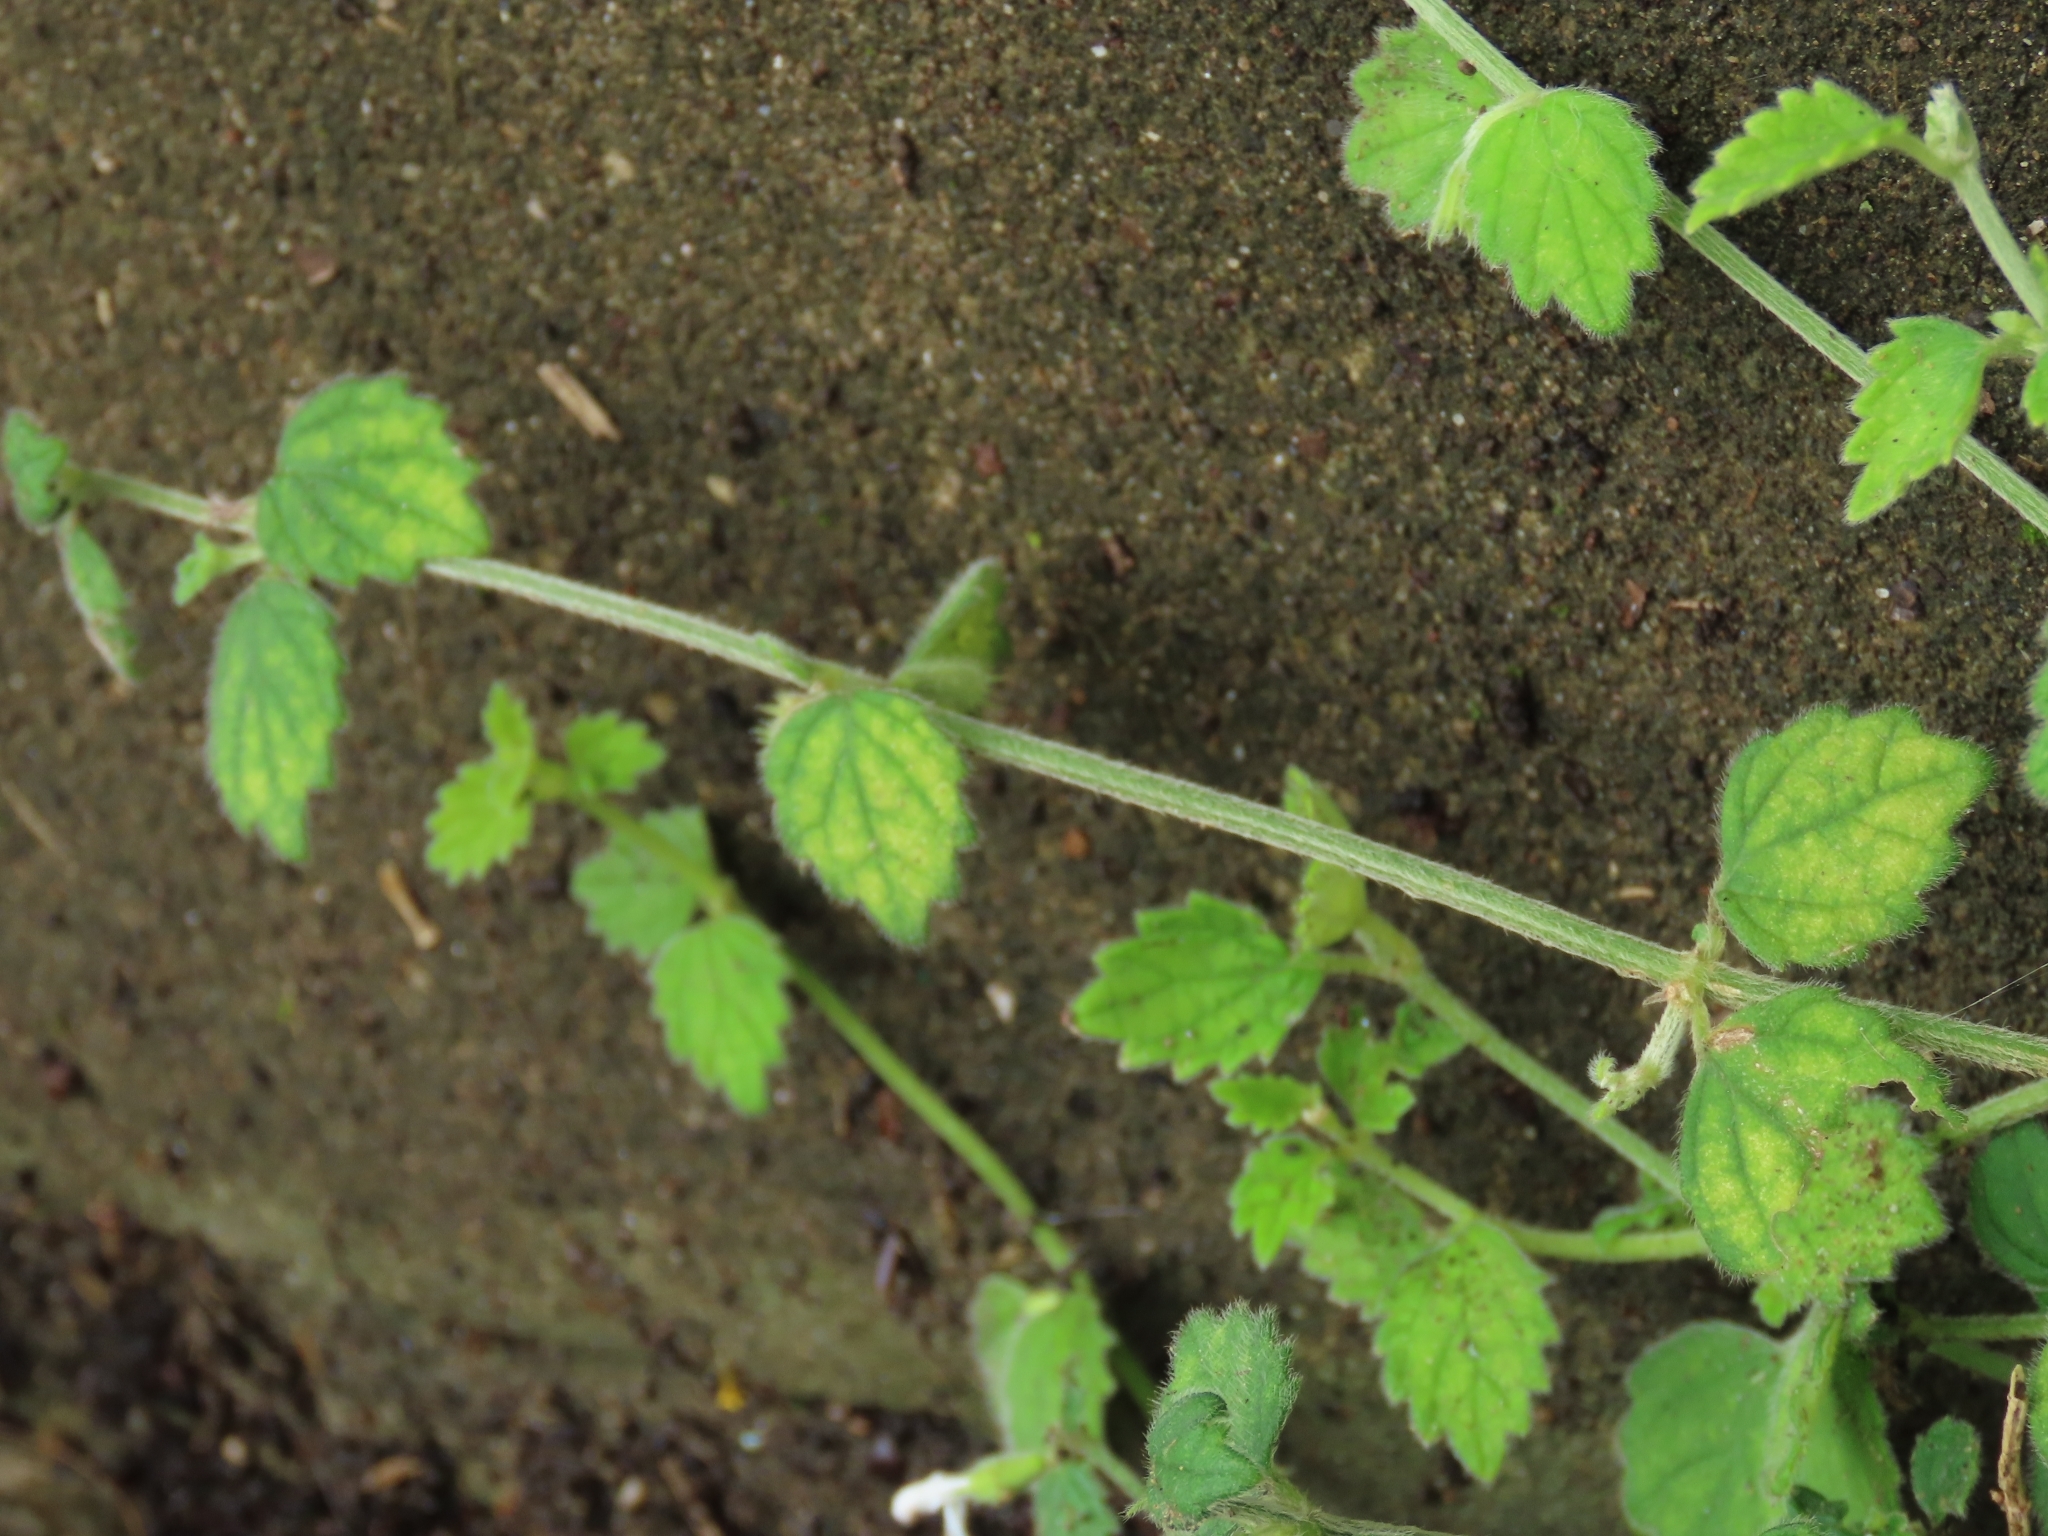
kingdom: Plantae
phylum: Tracheophyta
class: Magnoliopsida
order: Lamiales
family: Lamiaceae
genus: Leucas
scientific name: Leucas chinensis
